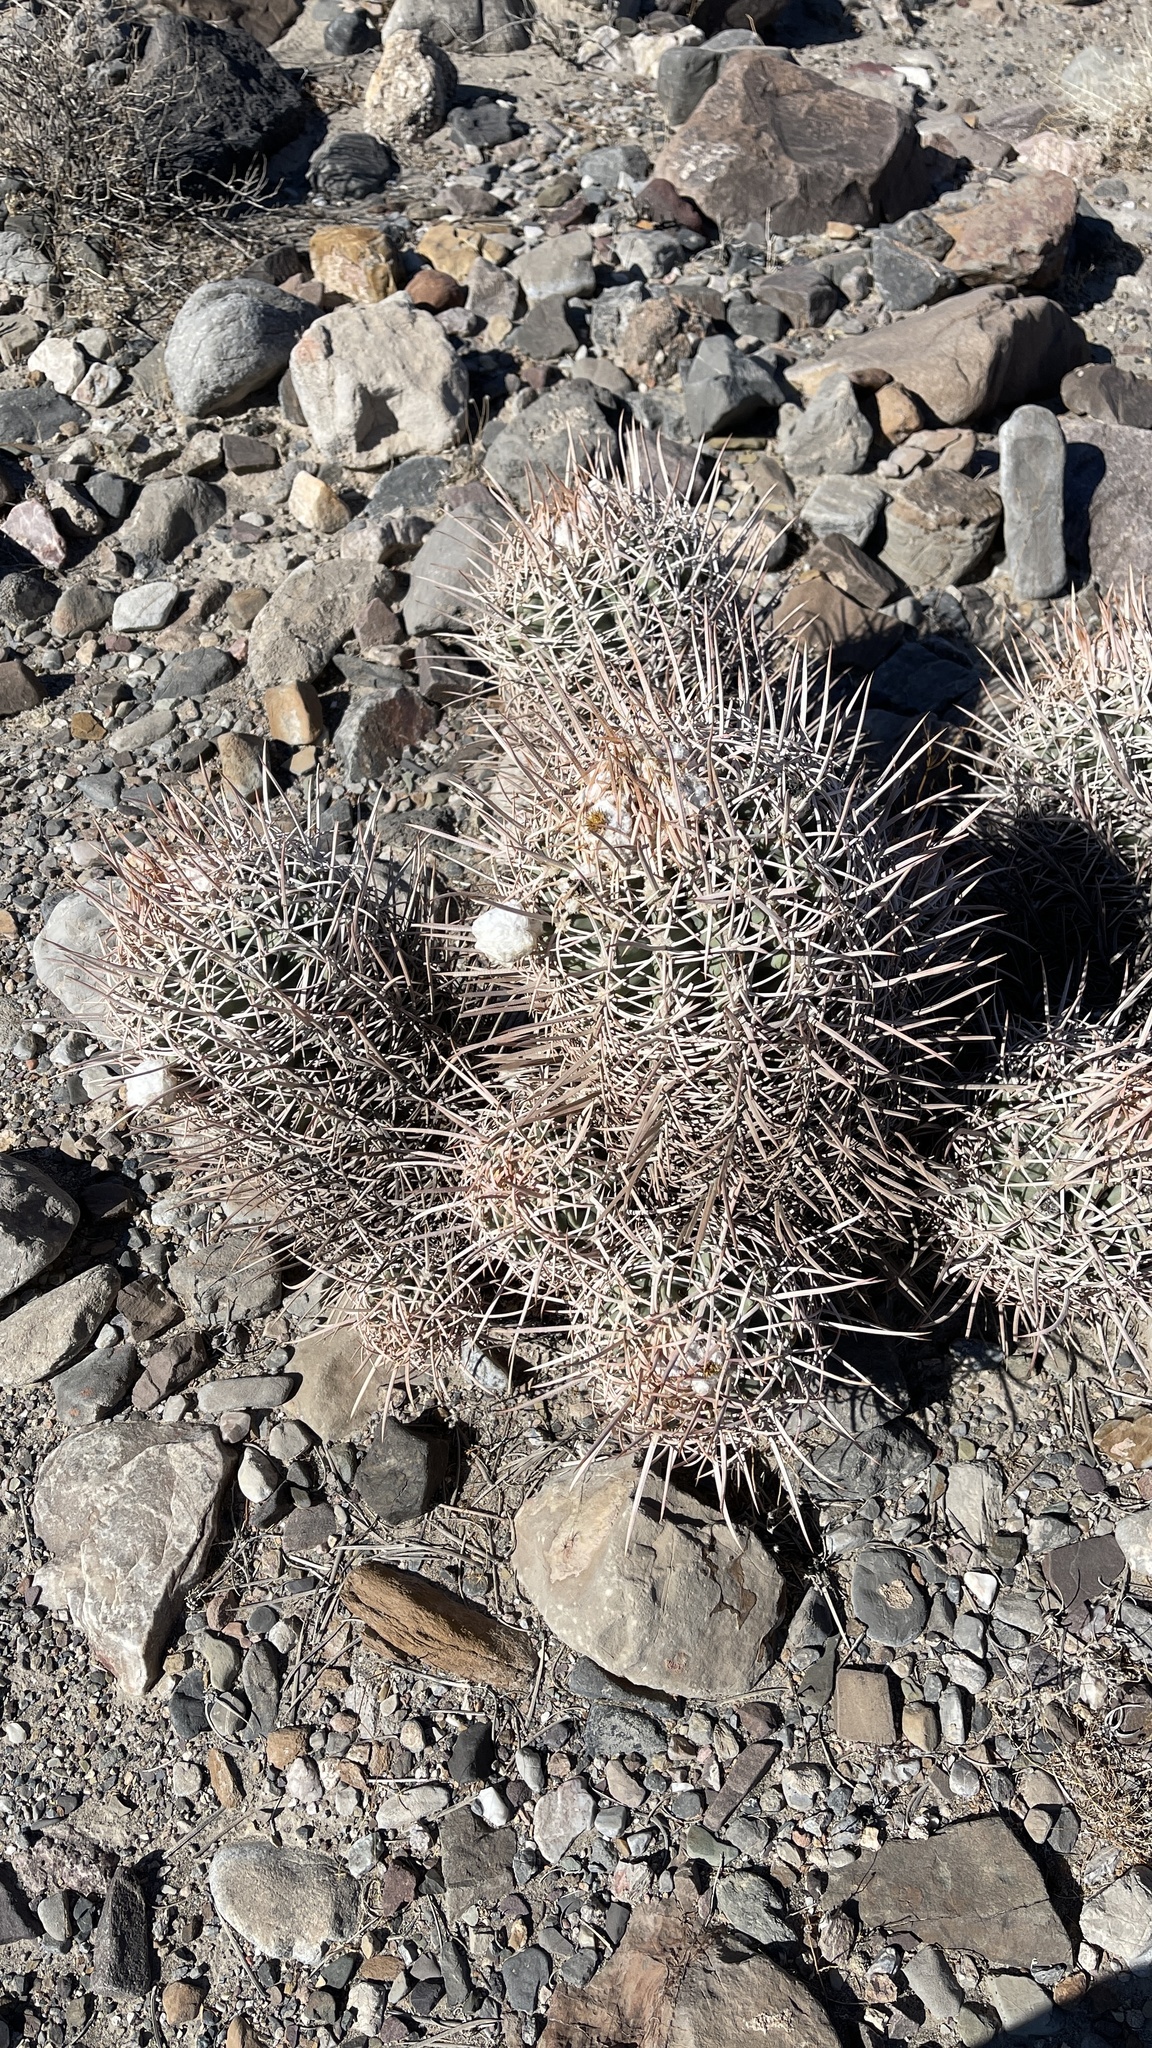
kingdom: Plantae
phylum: Tracheophyta
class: Magnoliopsida
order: Caryophyllales
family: Cactaceae
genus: Echinocactus
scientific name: Echinocactus polycephalus
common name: Cottontop cactus
